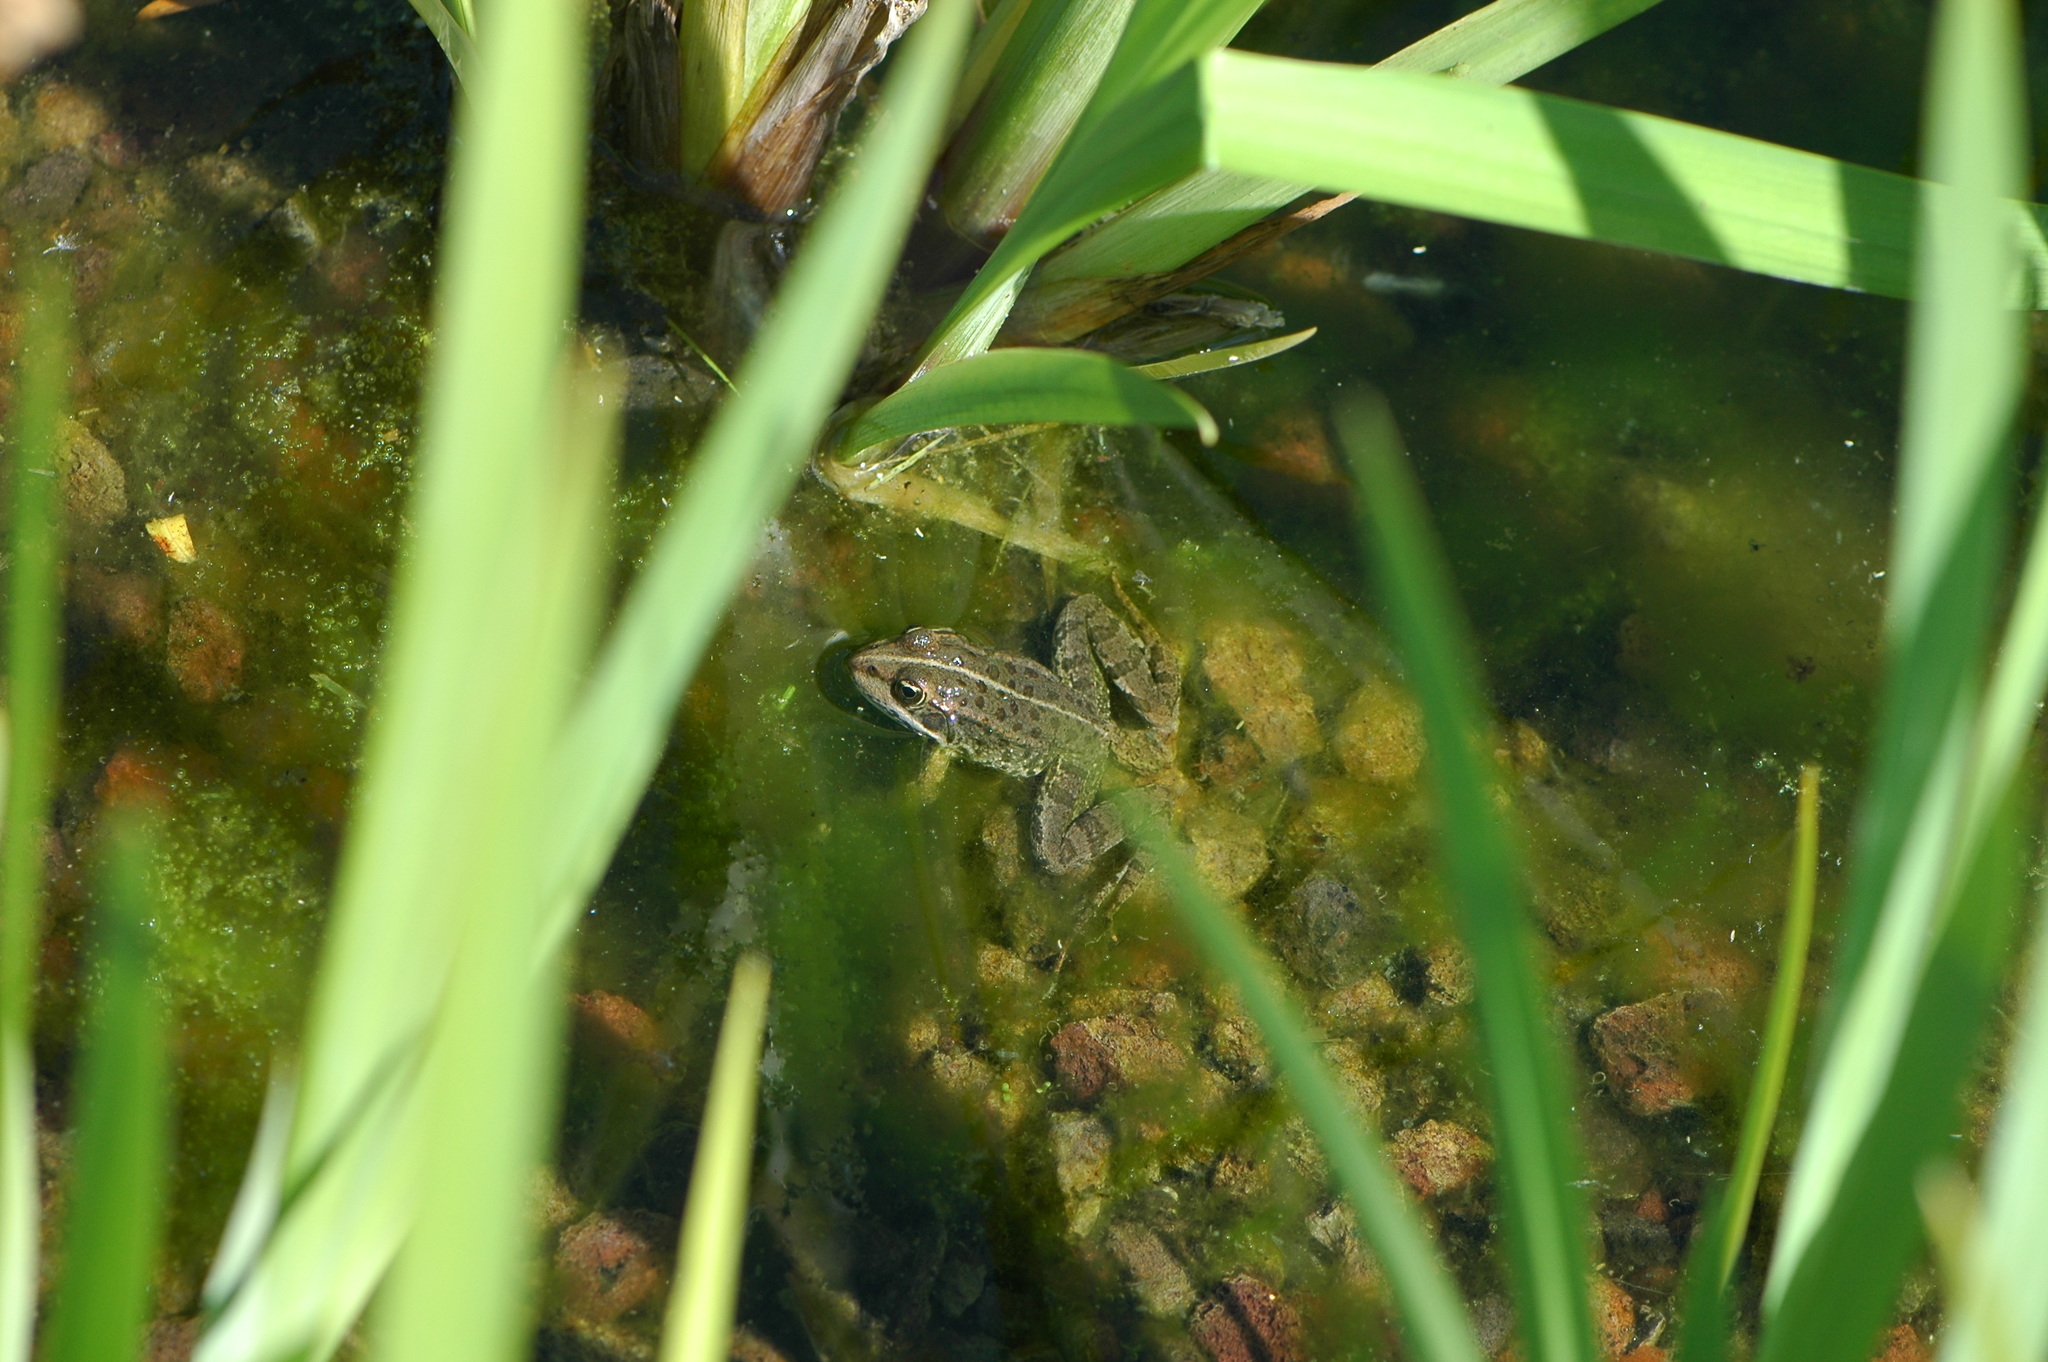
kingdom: Animalia
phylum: Chordata
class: Amphibia
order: Anura
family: Ranidae
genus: Pelophylax
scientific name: Pelophylax
